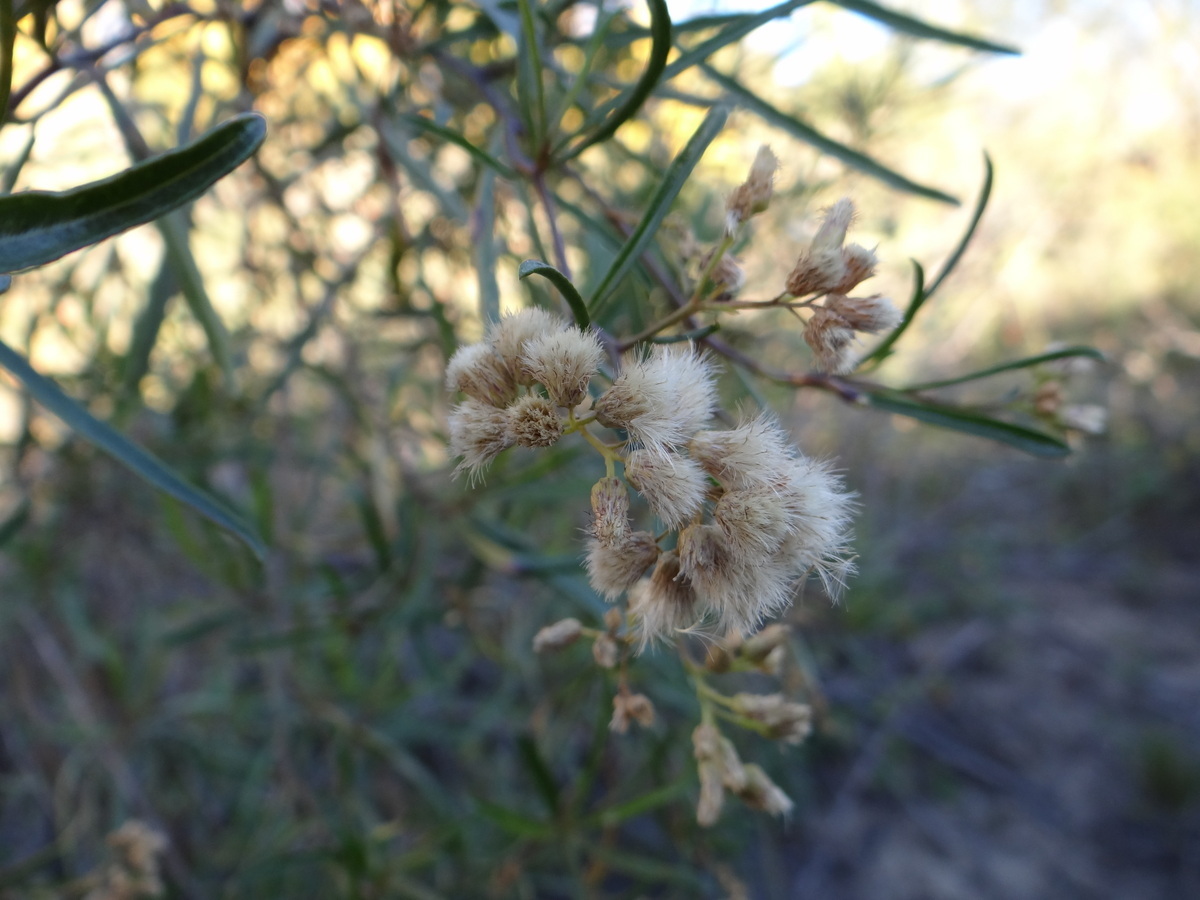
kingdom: Plantae
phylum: Tracheophyta
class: Magnoliopsida
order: Asterales
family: Asteraceae
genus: Baccharis
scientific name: Baccharis salicifolia
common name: Sticky baccharis
